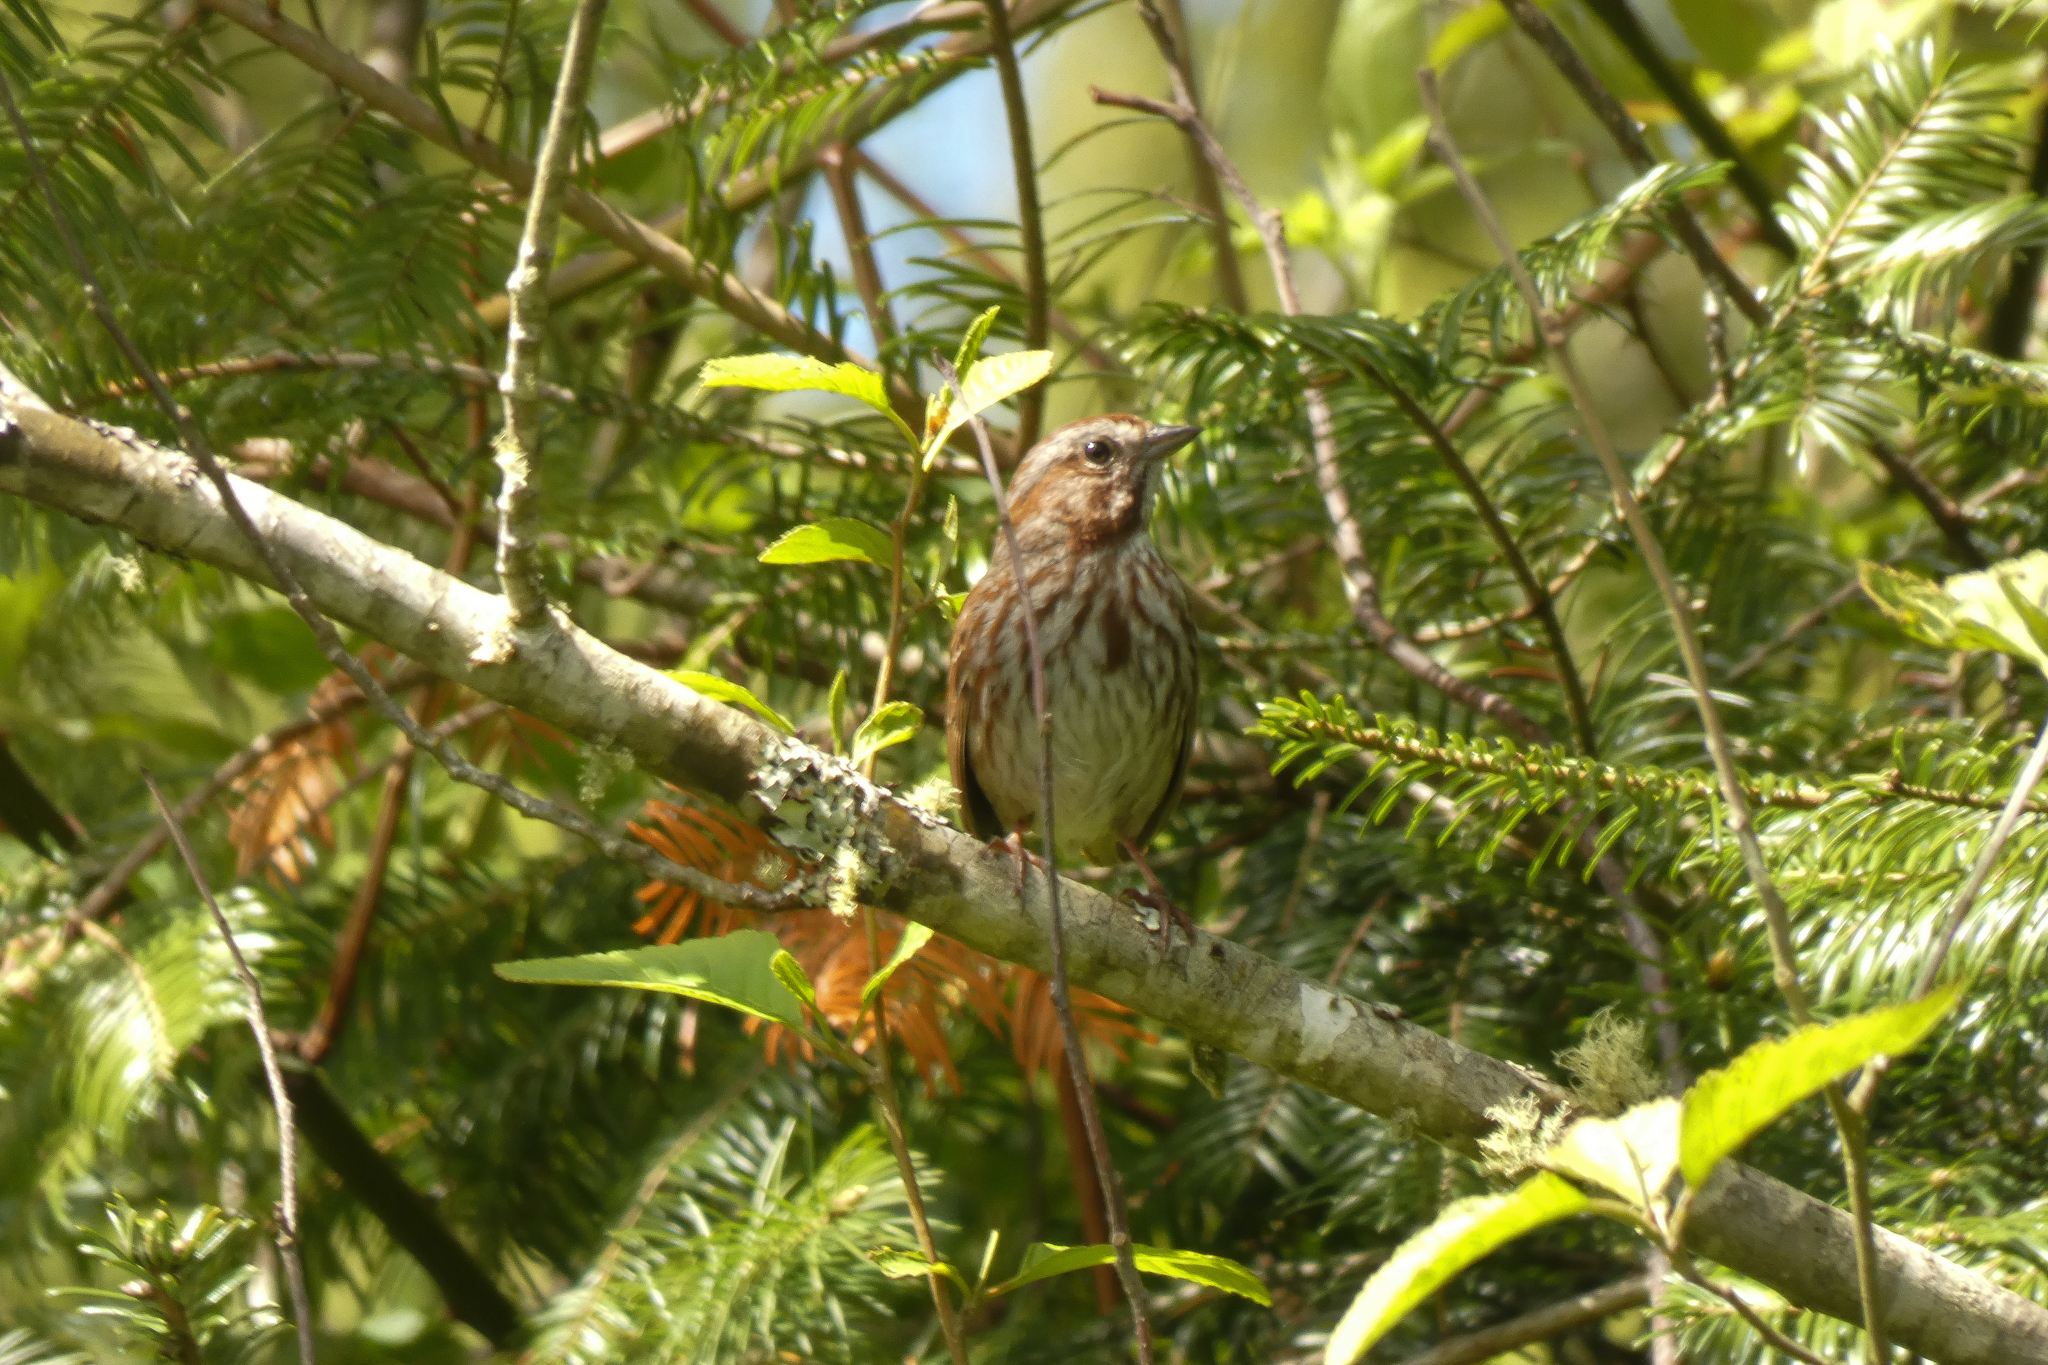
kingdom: Animalia
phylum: Chordata
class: Aves
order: Passeriformes
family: Passerellidae
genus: Melospiza
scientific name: Melospiza melodia
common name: Song sparrow
